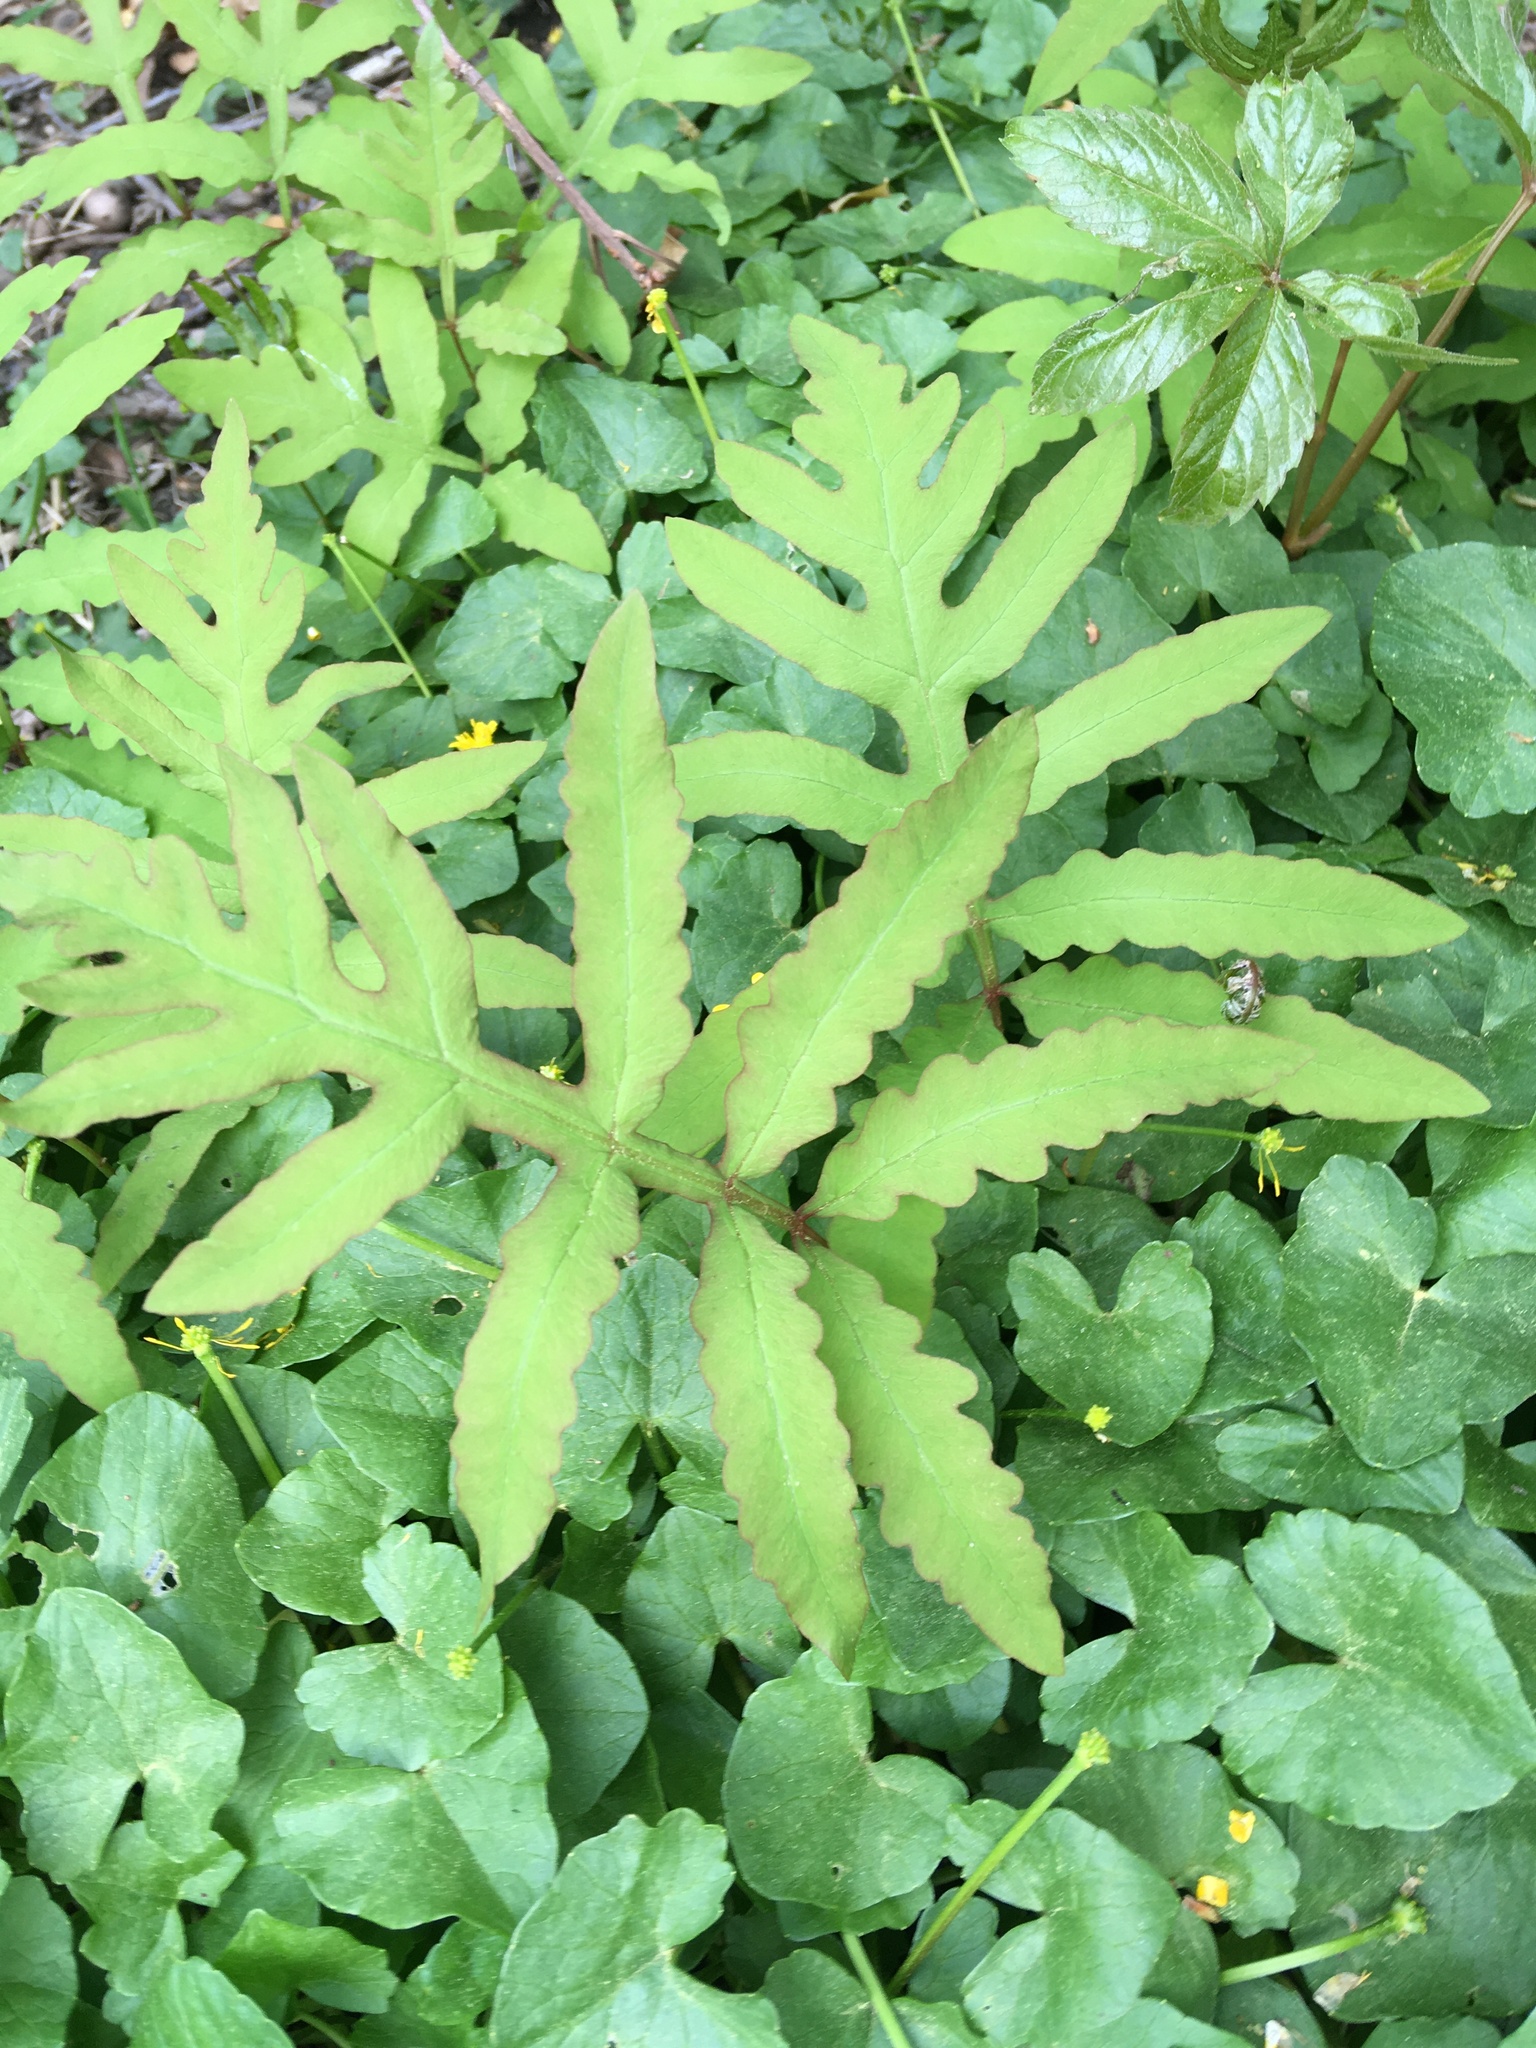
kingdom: Plantae
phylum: Tracheophyta
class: Polypodiopsida
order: Polypodiales
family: Onocleaceae
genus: Onoclea
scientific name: Onoclea sensibilis
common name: Sensitive fern
